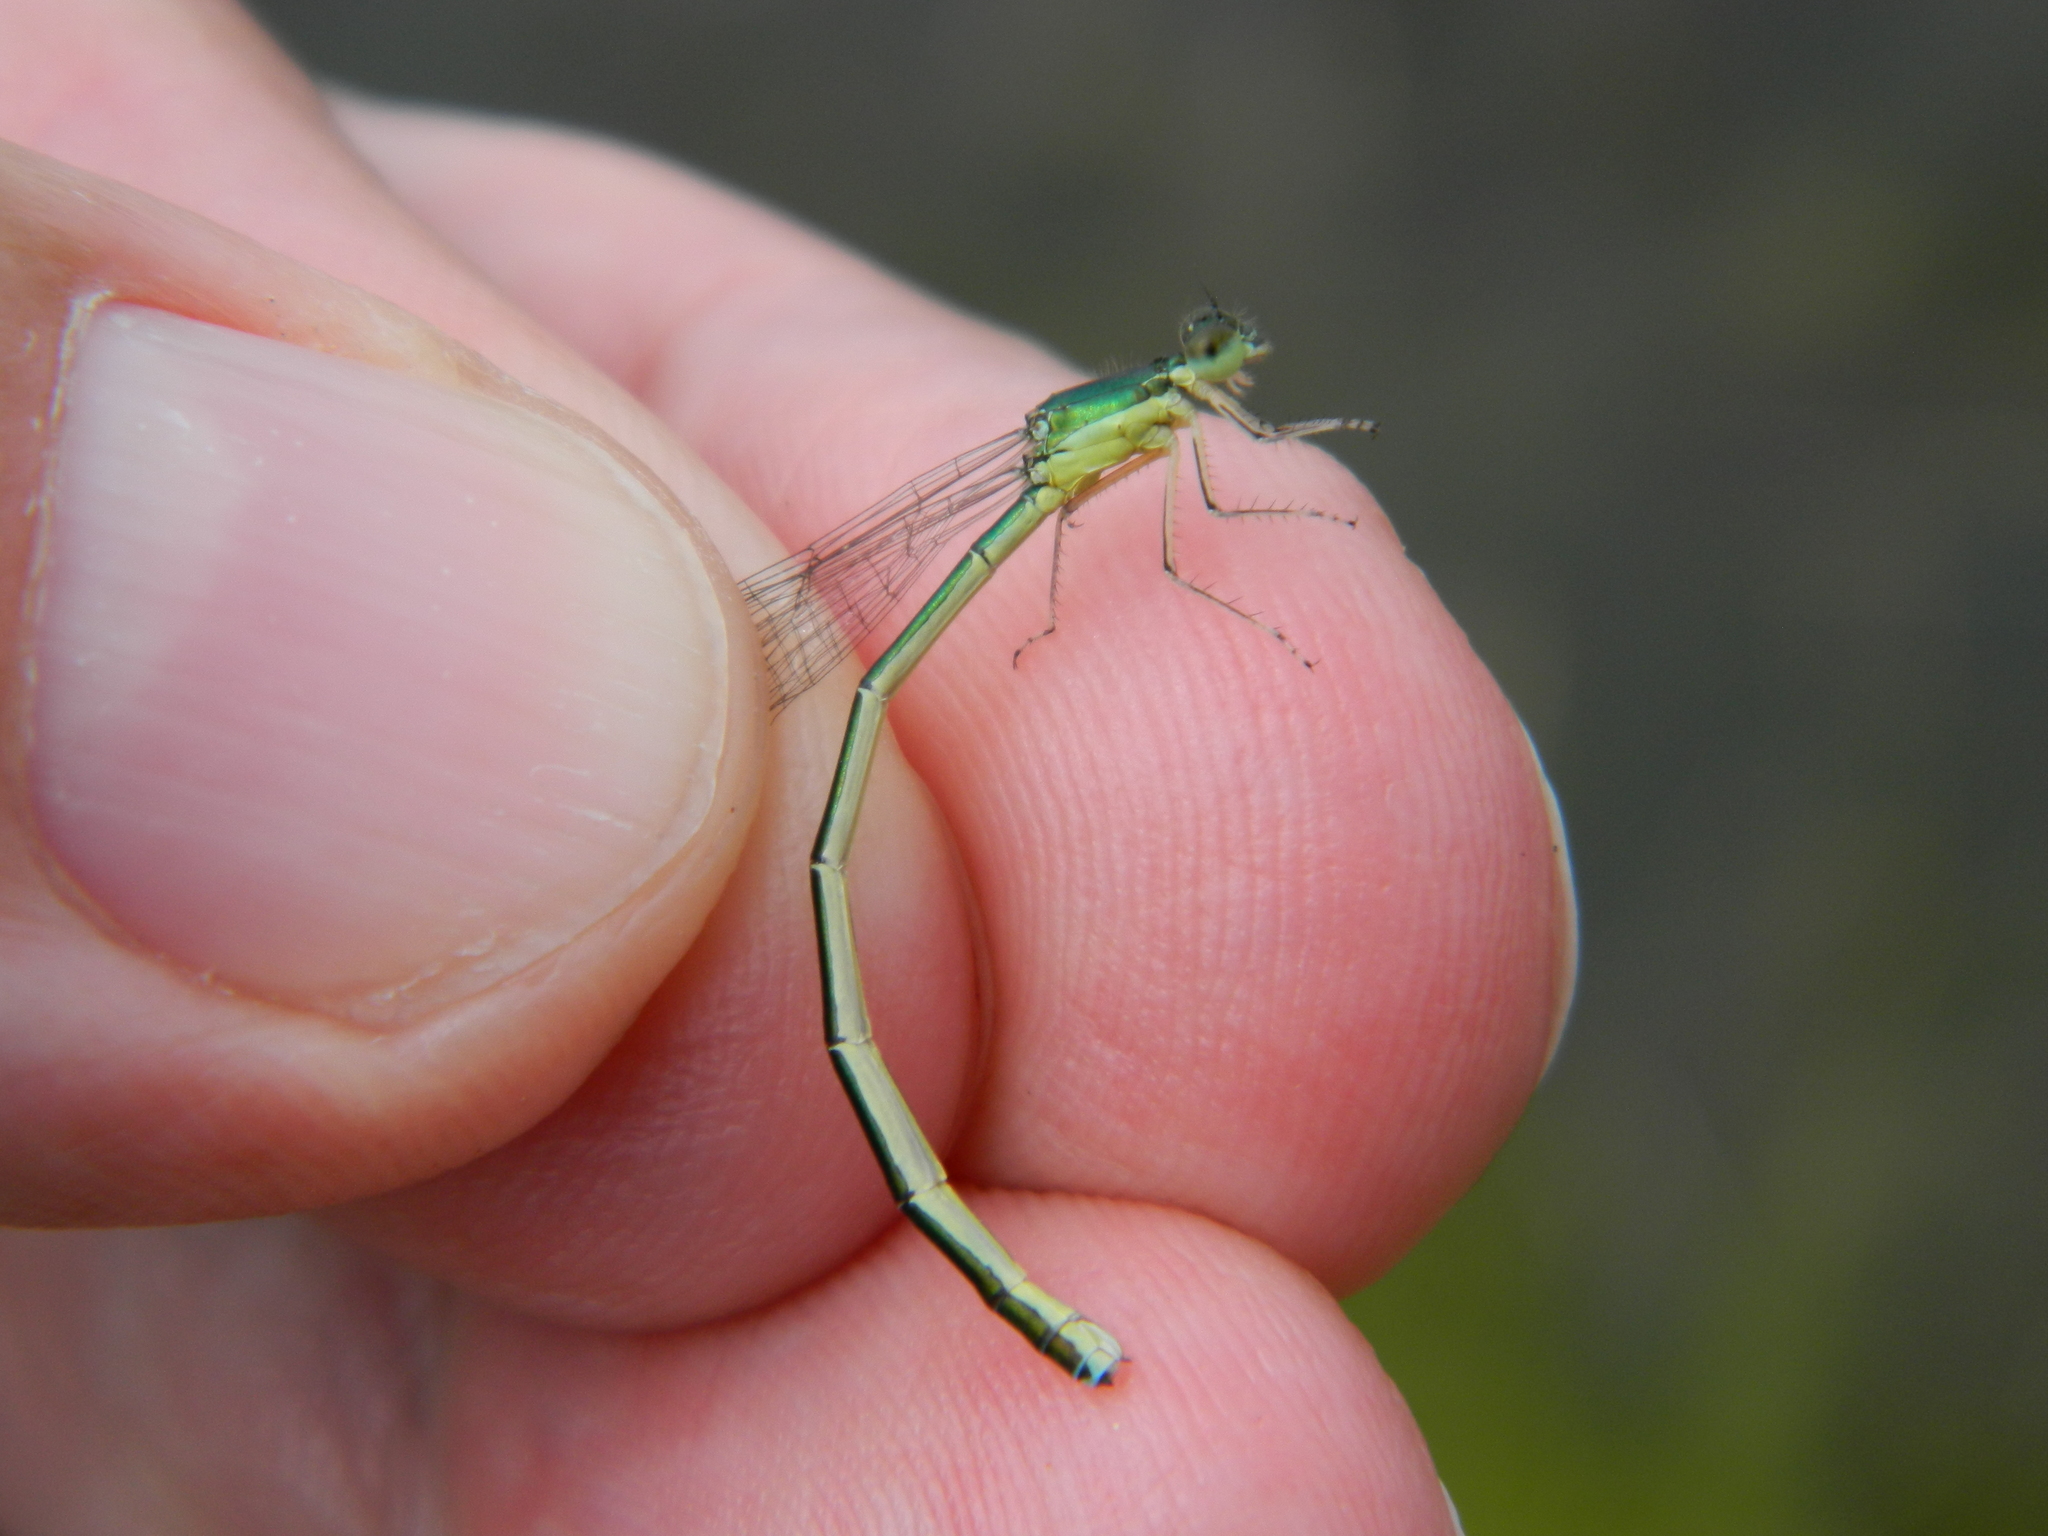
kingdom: Animalia
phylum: Arthropoda
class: Insecta
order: Odonata
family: Coenagrionidae
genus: Nehalennia
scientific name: Nehalennia irene
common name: Sedge sprite
